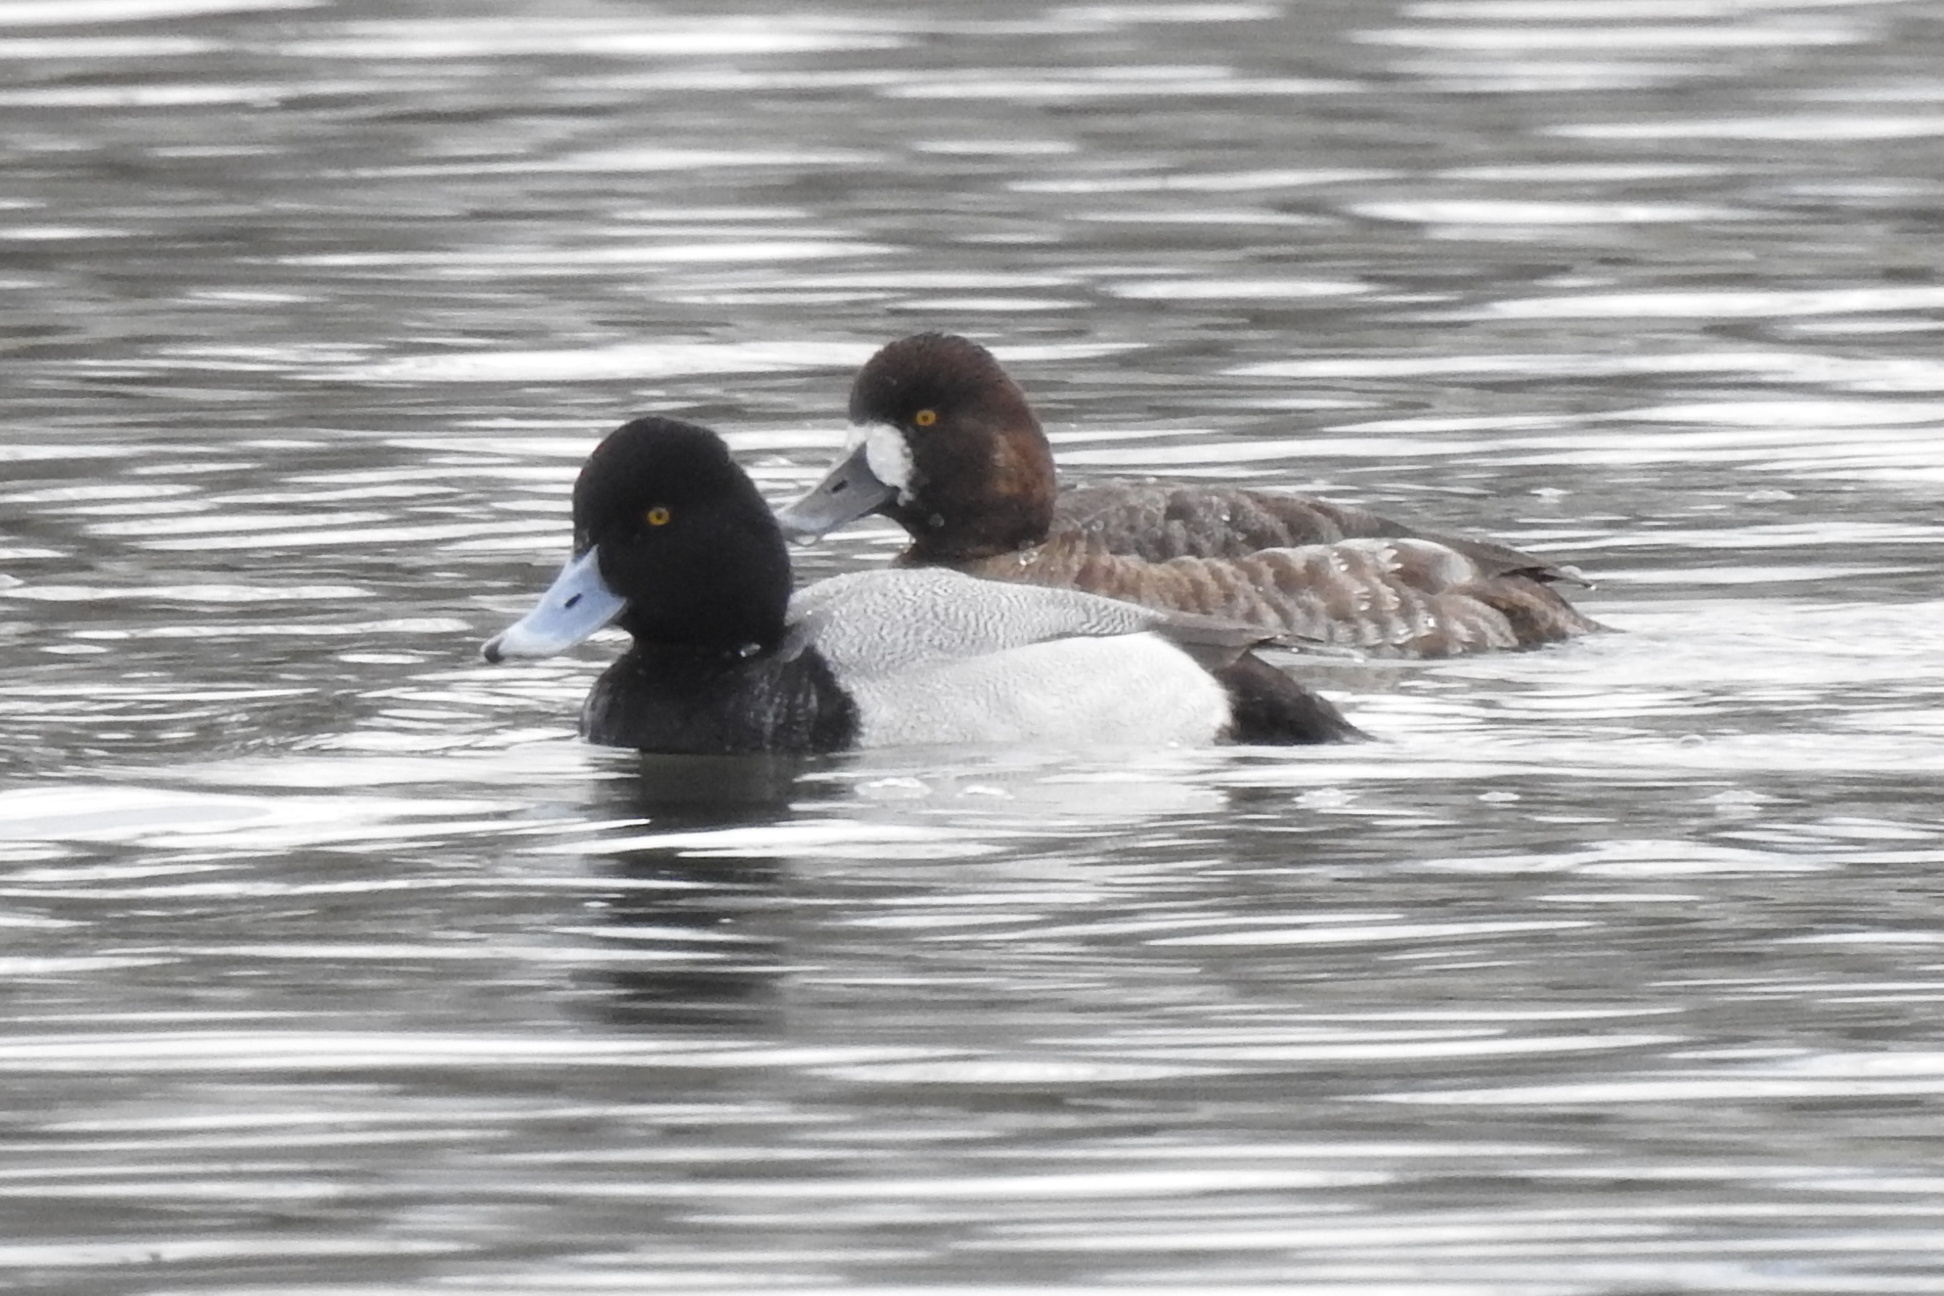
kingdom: Animalia
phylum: Chordata
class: Aves
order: Anseriformes
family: Anatidae
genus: Aythya
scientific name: Aythya affinis
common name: Lesser scaup
